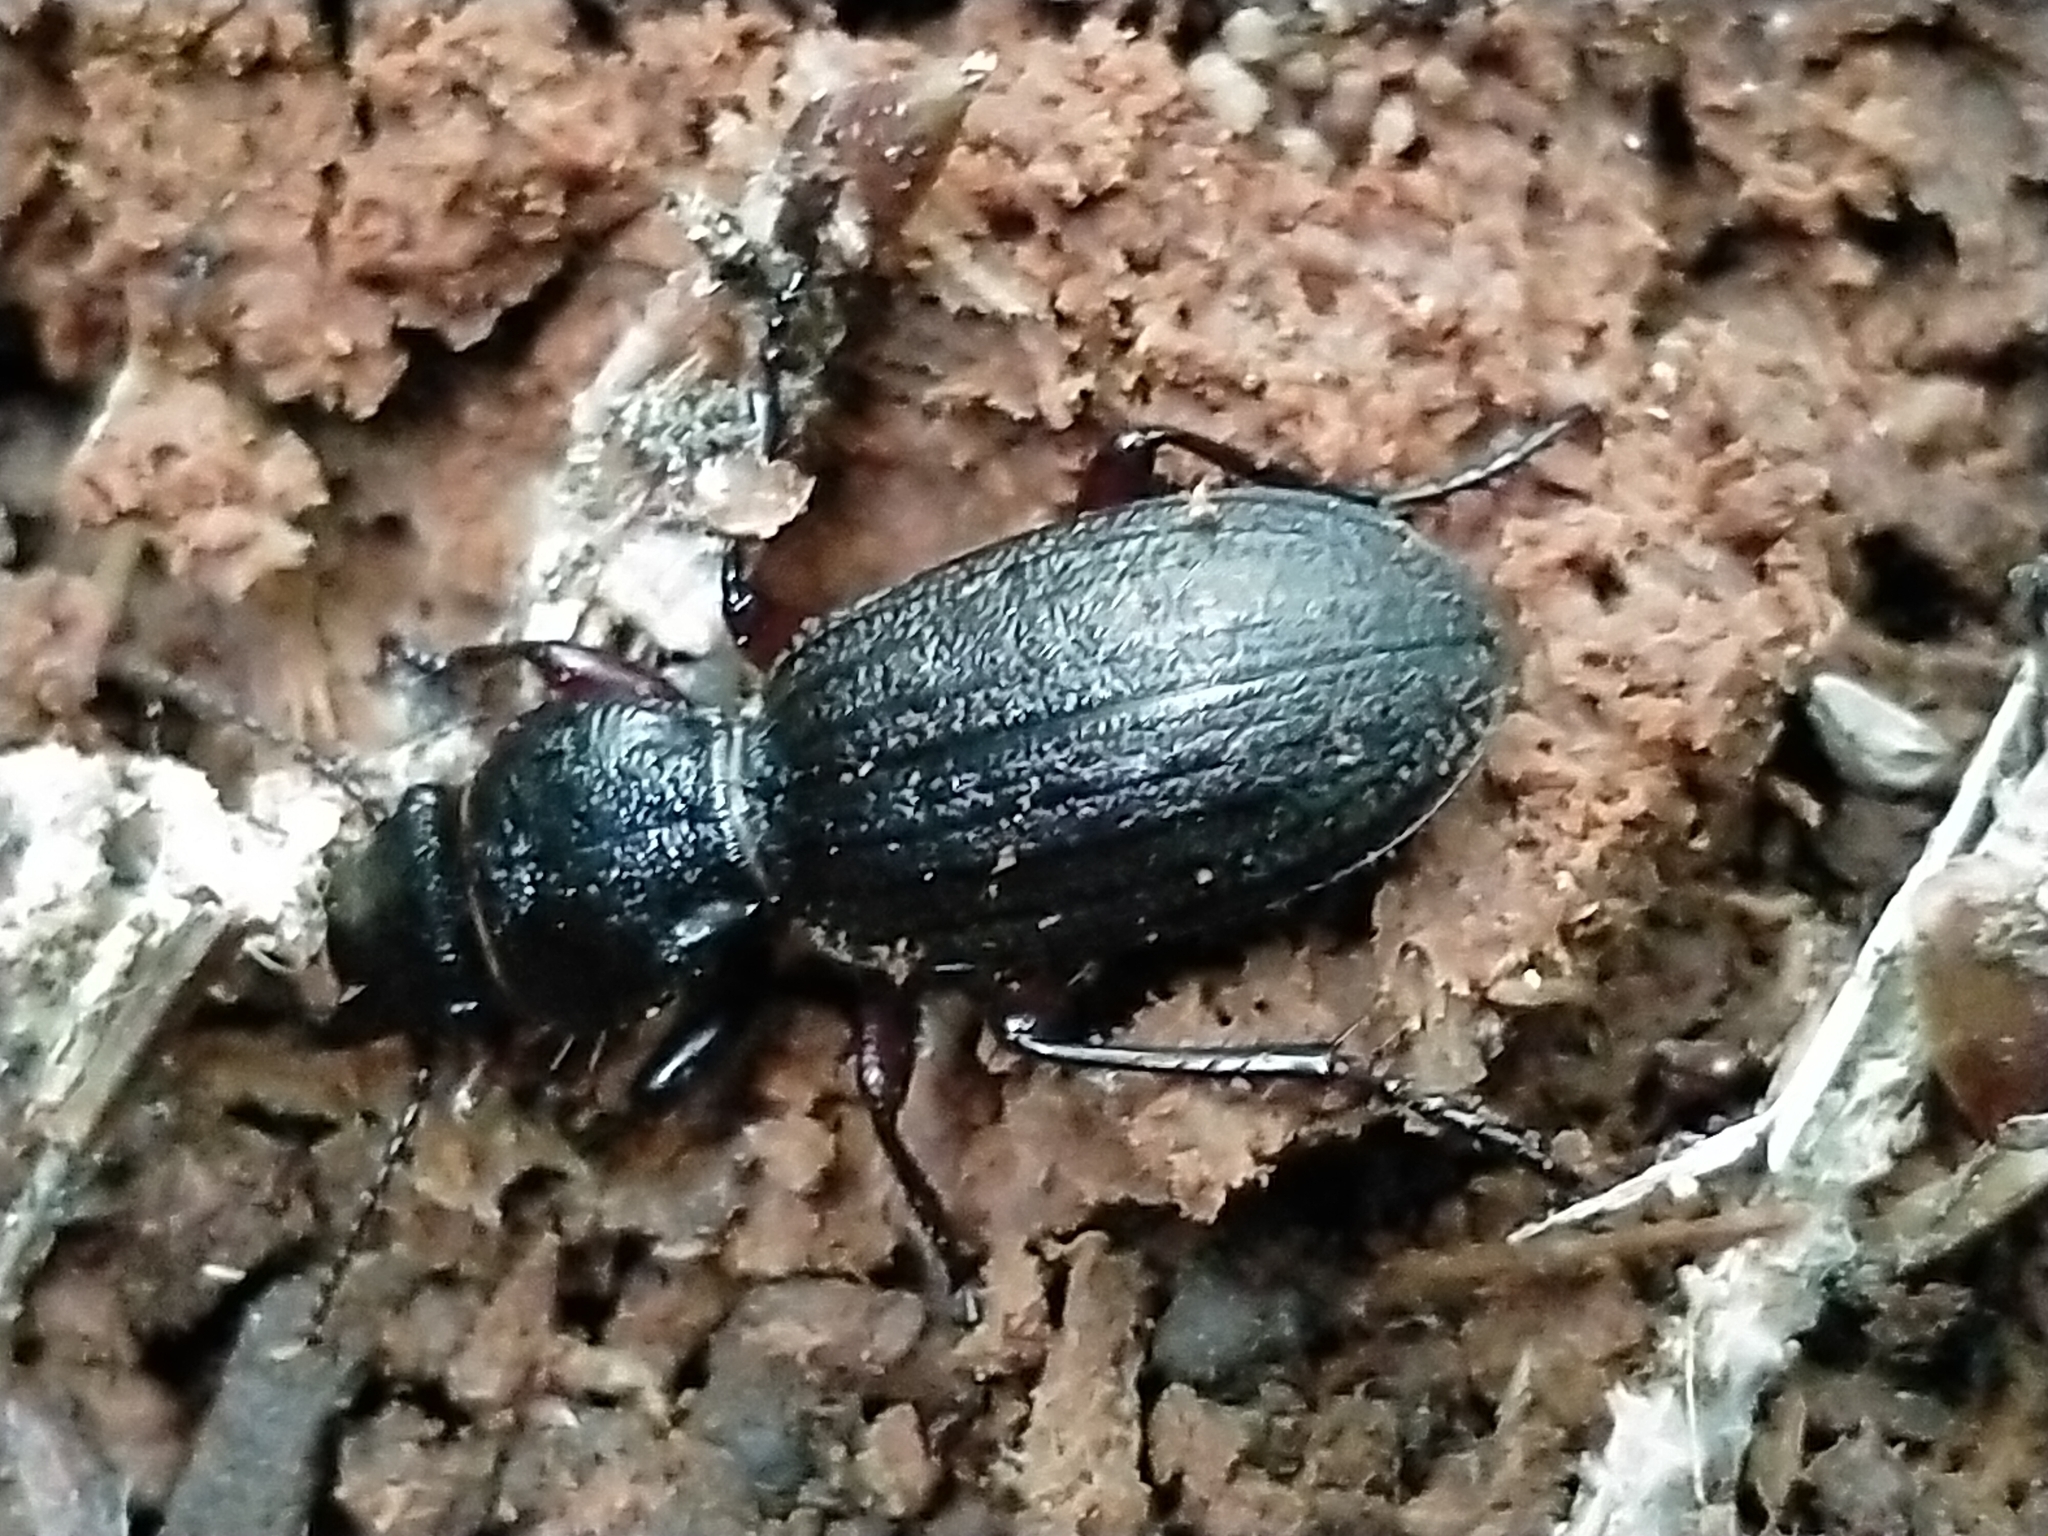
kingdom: Animalia
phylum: Arthropoda
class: Insecta
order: Coleoptera
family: Carabidae
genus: Mecodema
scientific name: Mecodema sculpturatum
